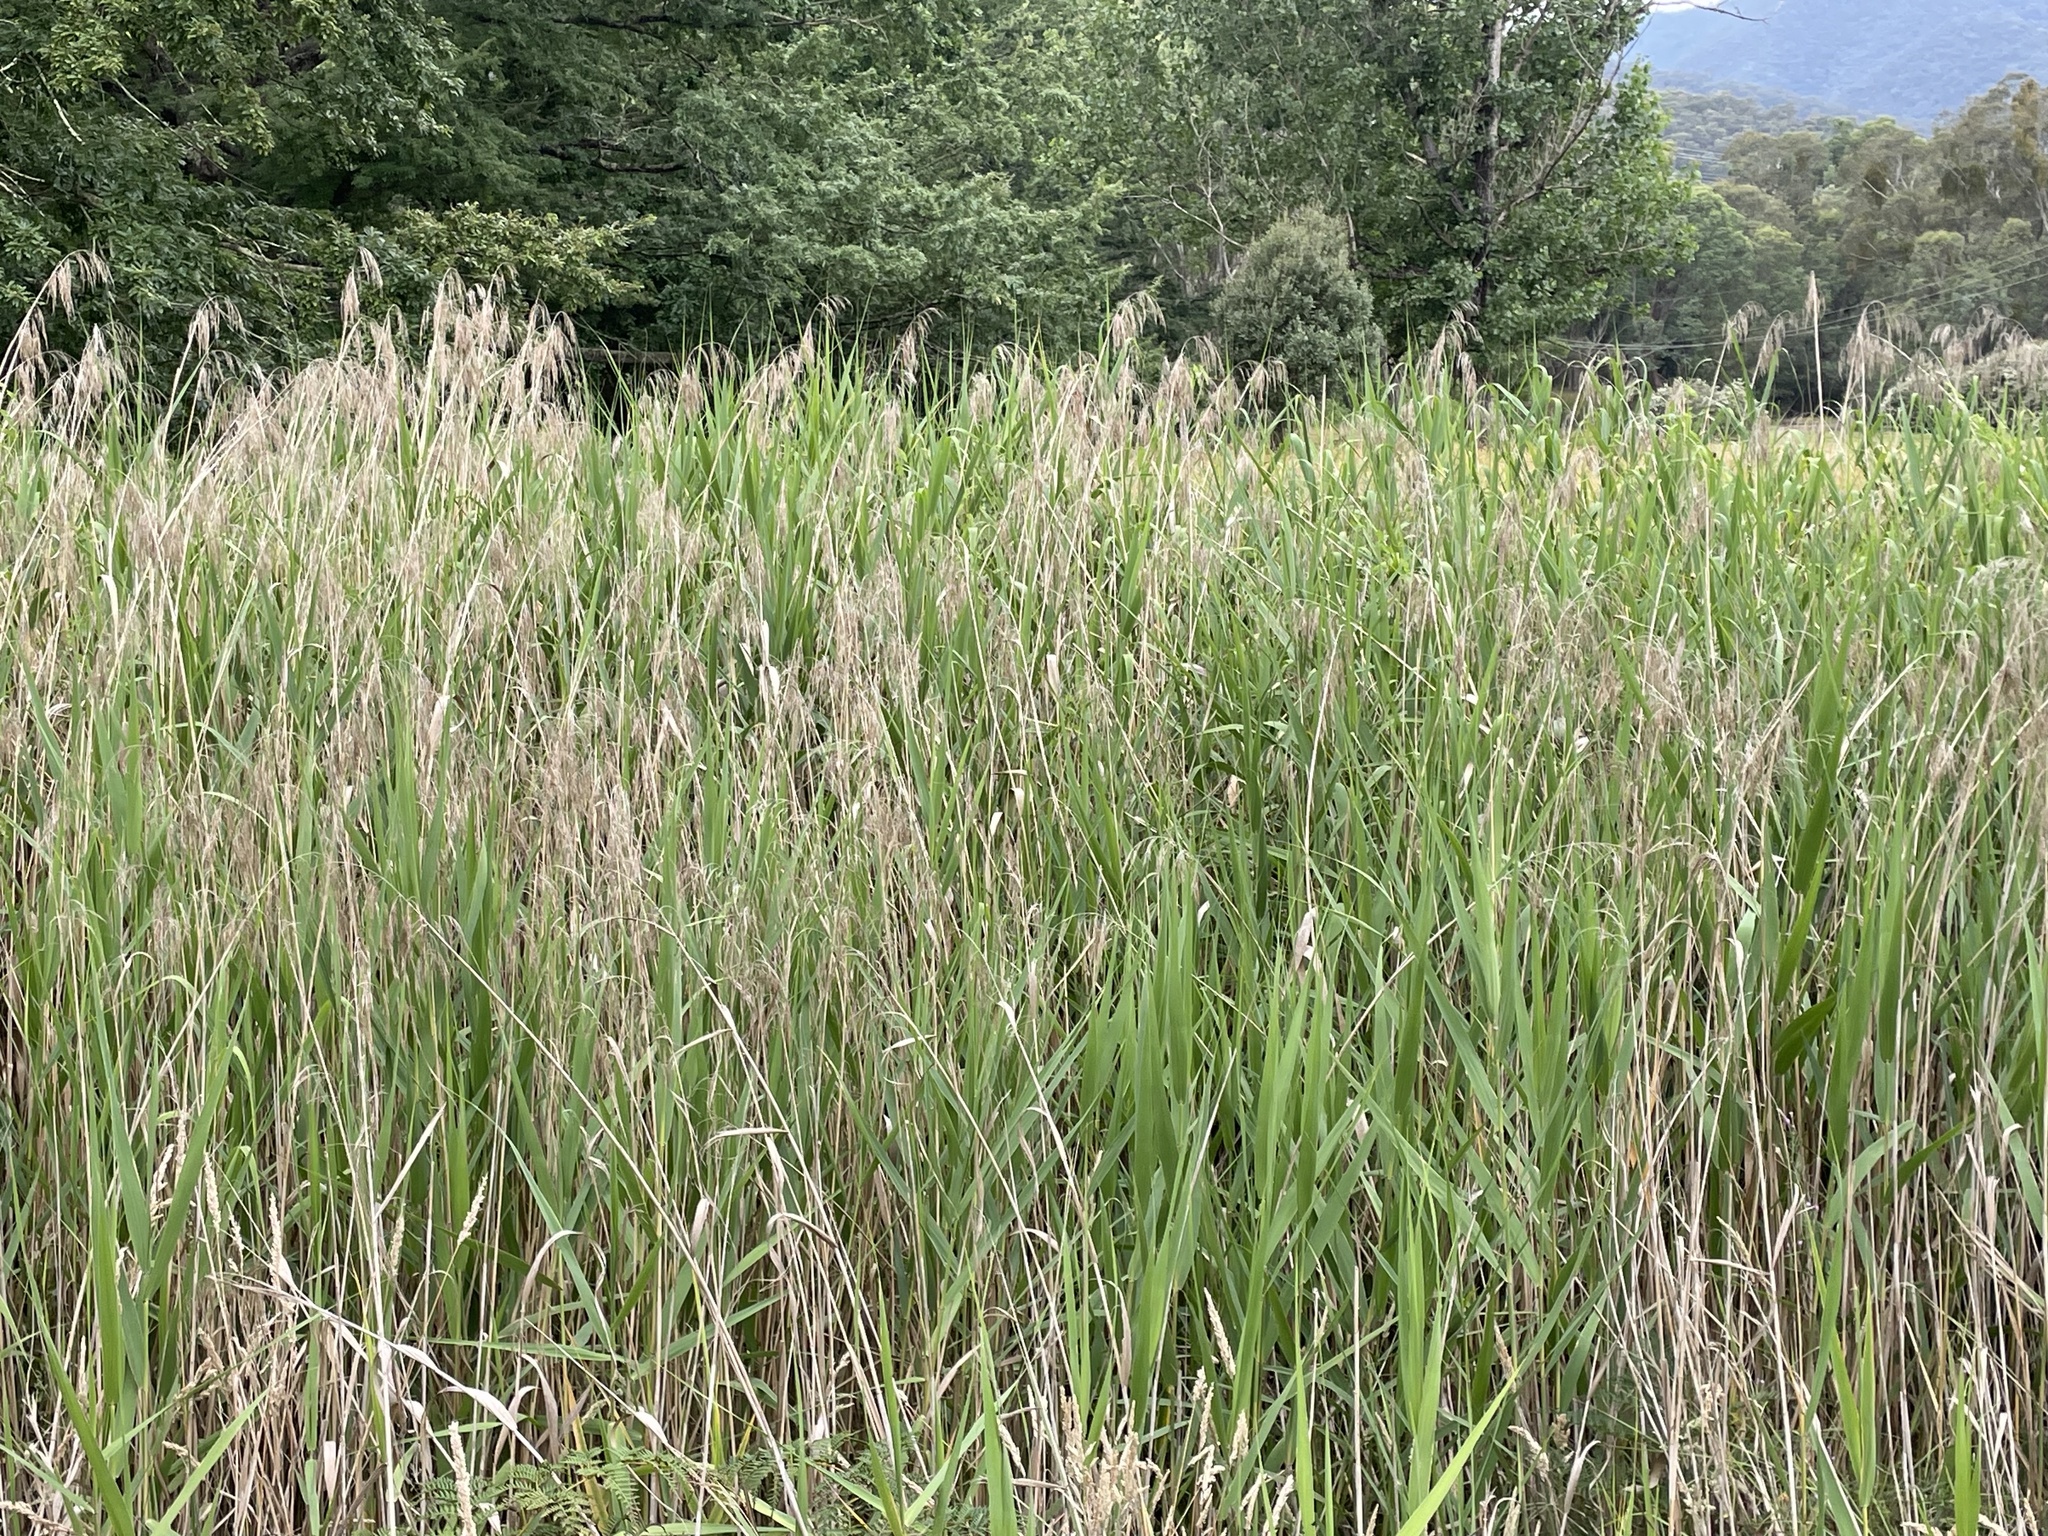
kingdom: Plantae
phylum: Tracheophyta
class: Liliopsida
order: Poales
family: Poaceae
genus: Phragmites
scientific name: Phragmites australis
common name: Common reed
